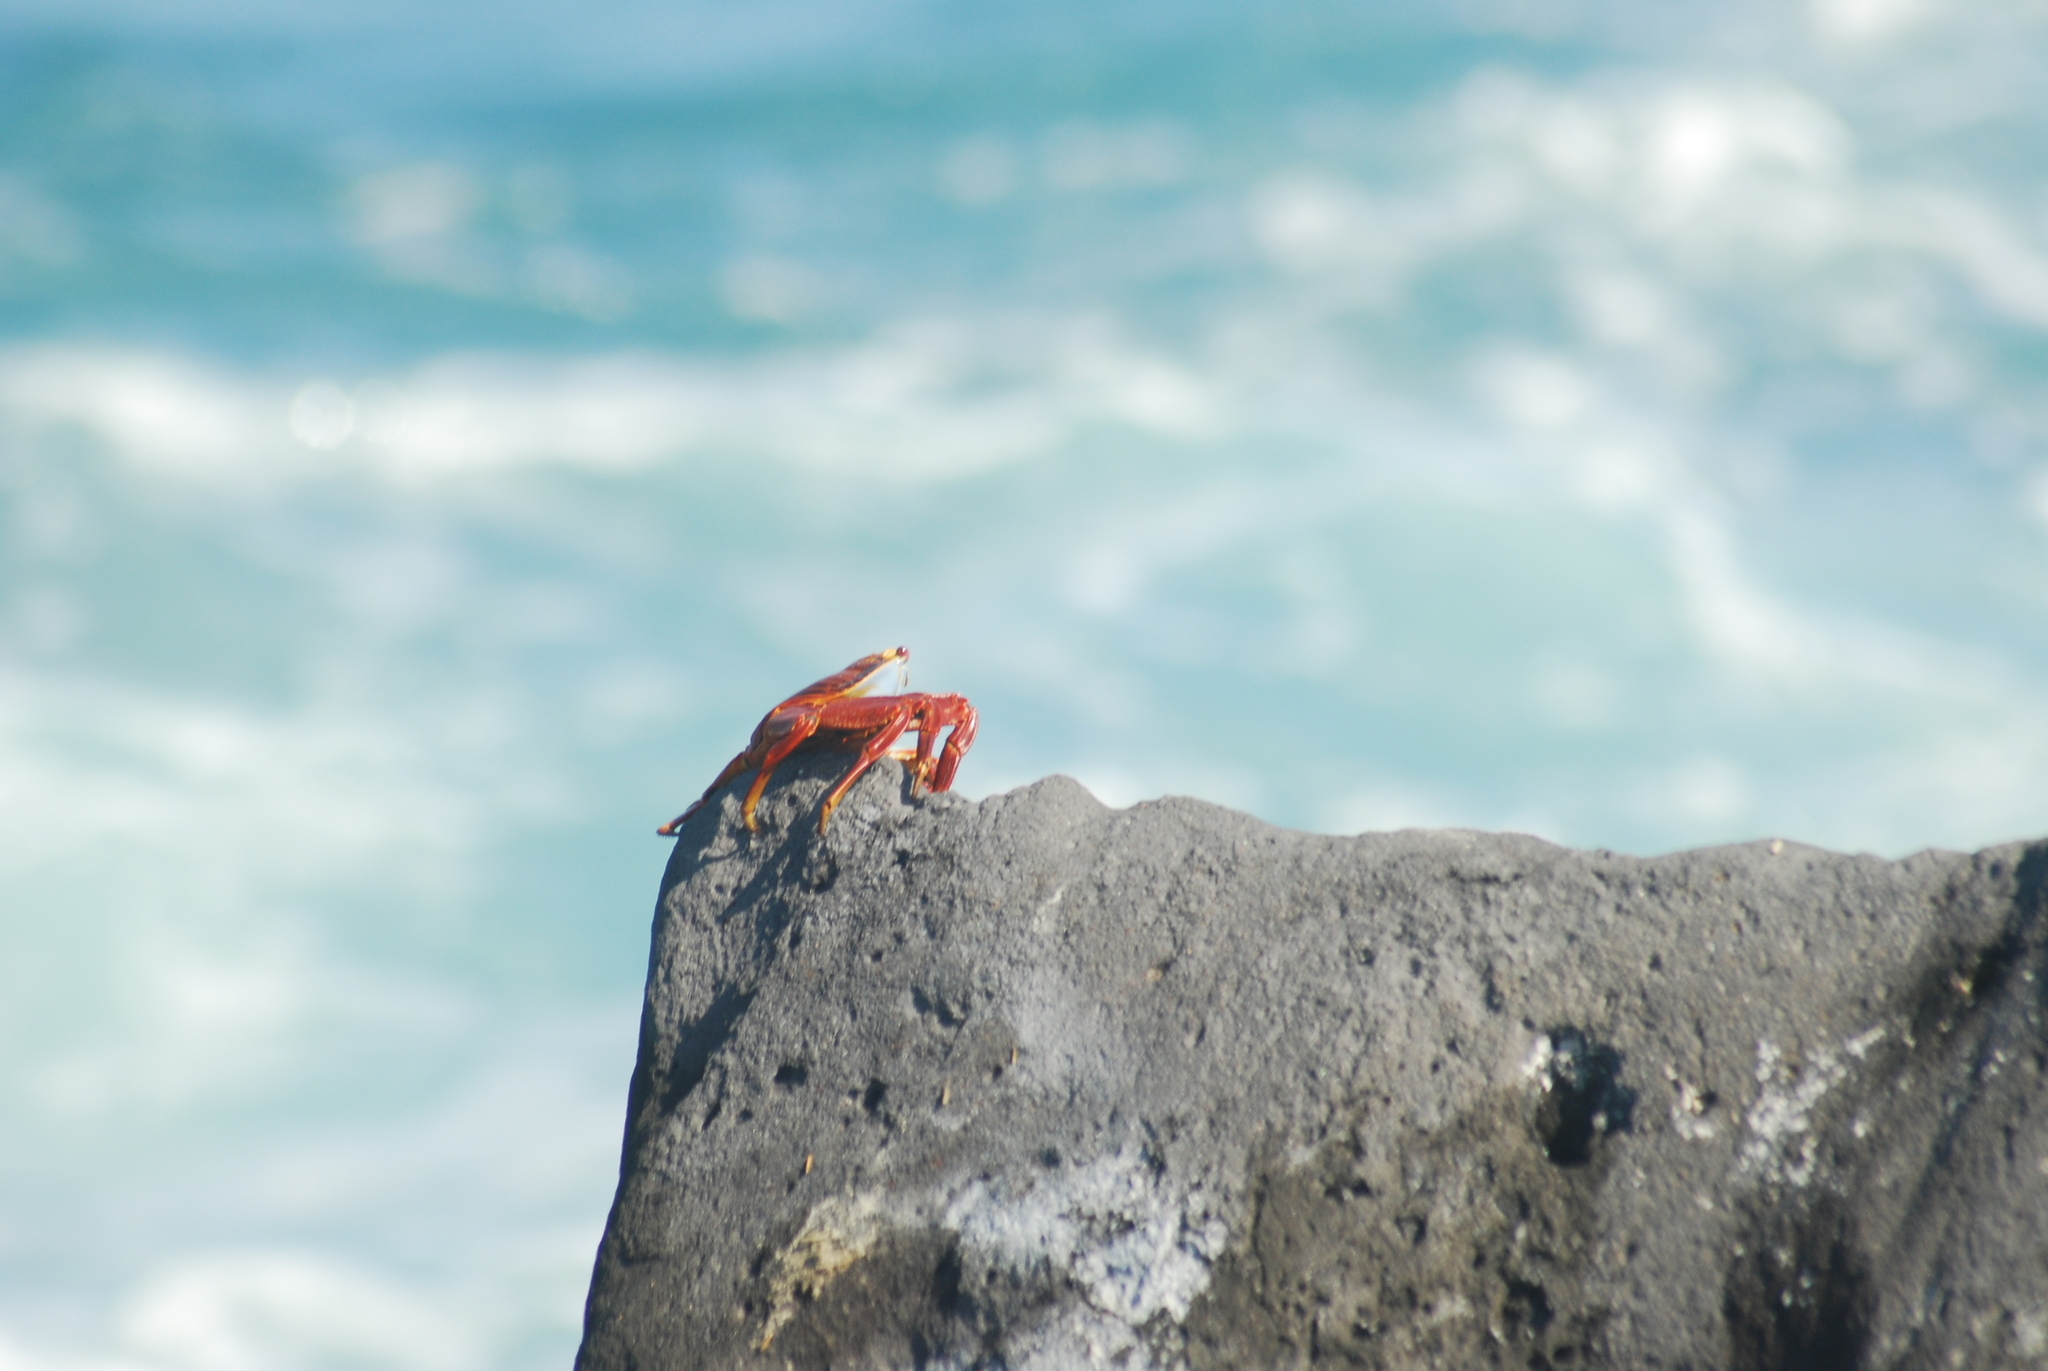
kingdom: Animalia
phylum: Arthropoda
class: Malacostraca
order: Decapoda
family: Grapsidae
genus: Grapsus
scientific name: Grapsus grapsus
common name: Sally lightfoot
